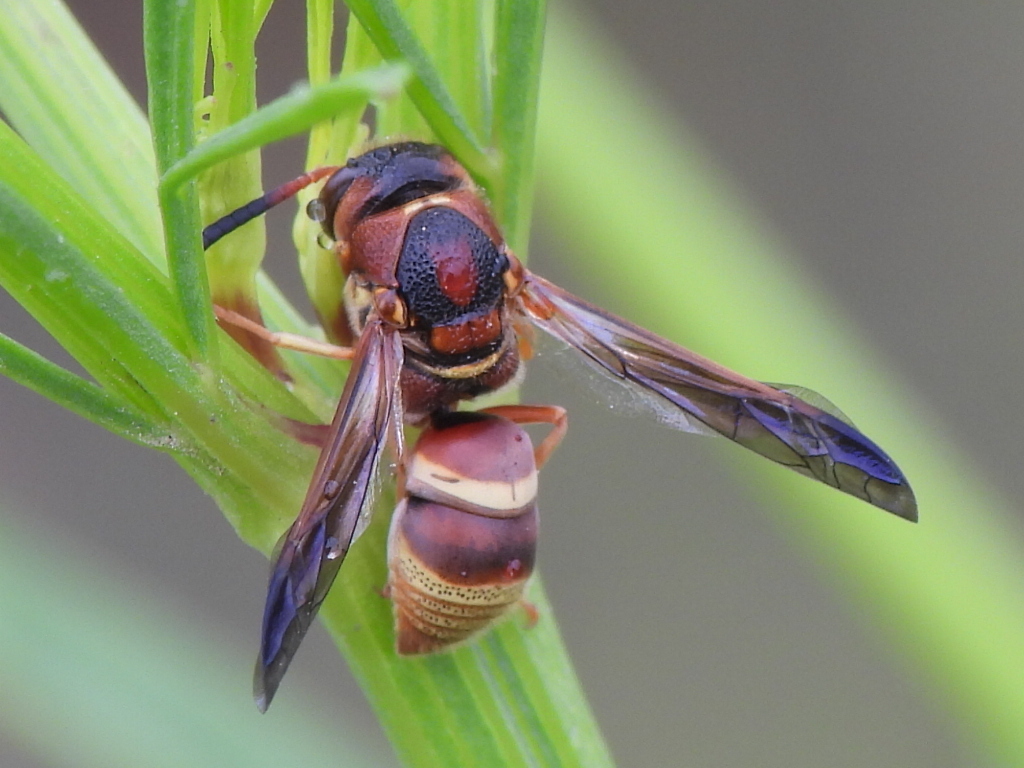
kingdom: Animalia
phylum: Arthropoda
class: Insecta
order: Hymenoptera
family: Eumenidae
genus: Euodynerus
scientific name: Euodynerus pratensis
